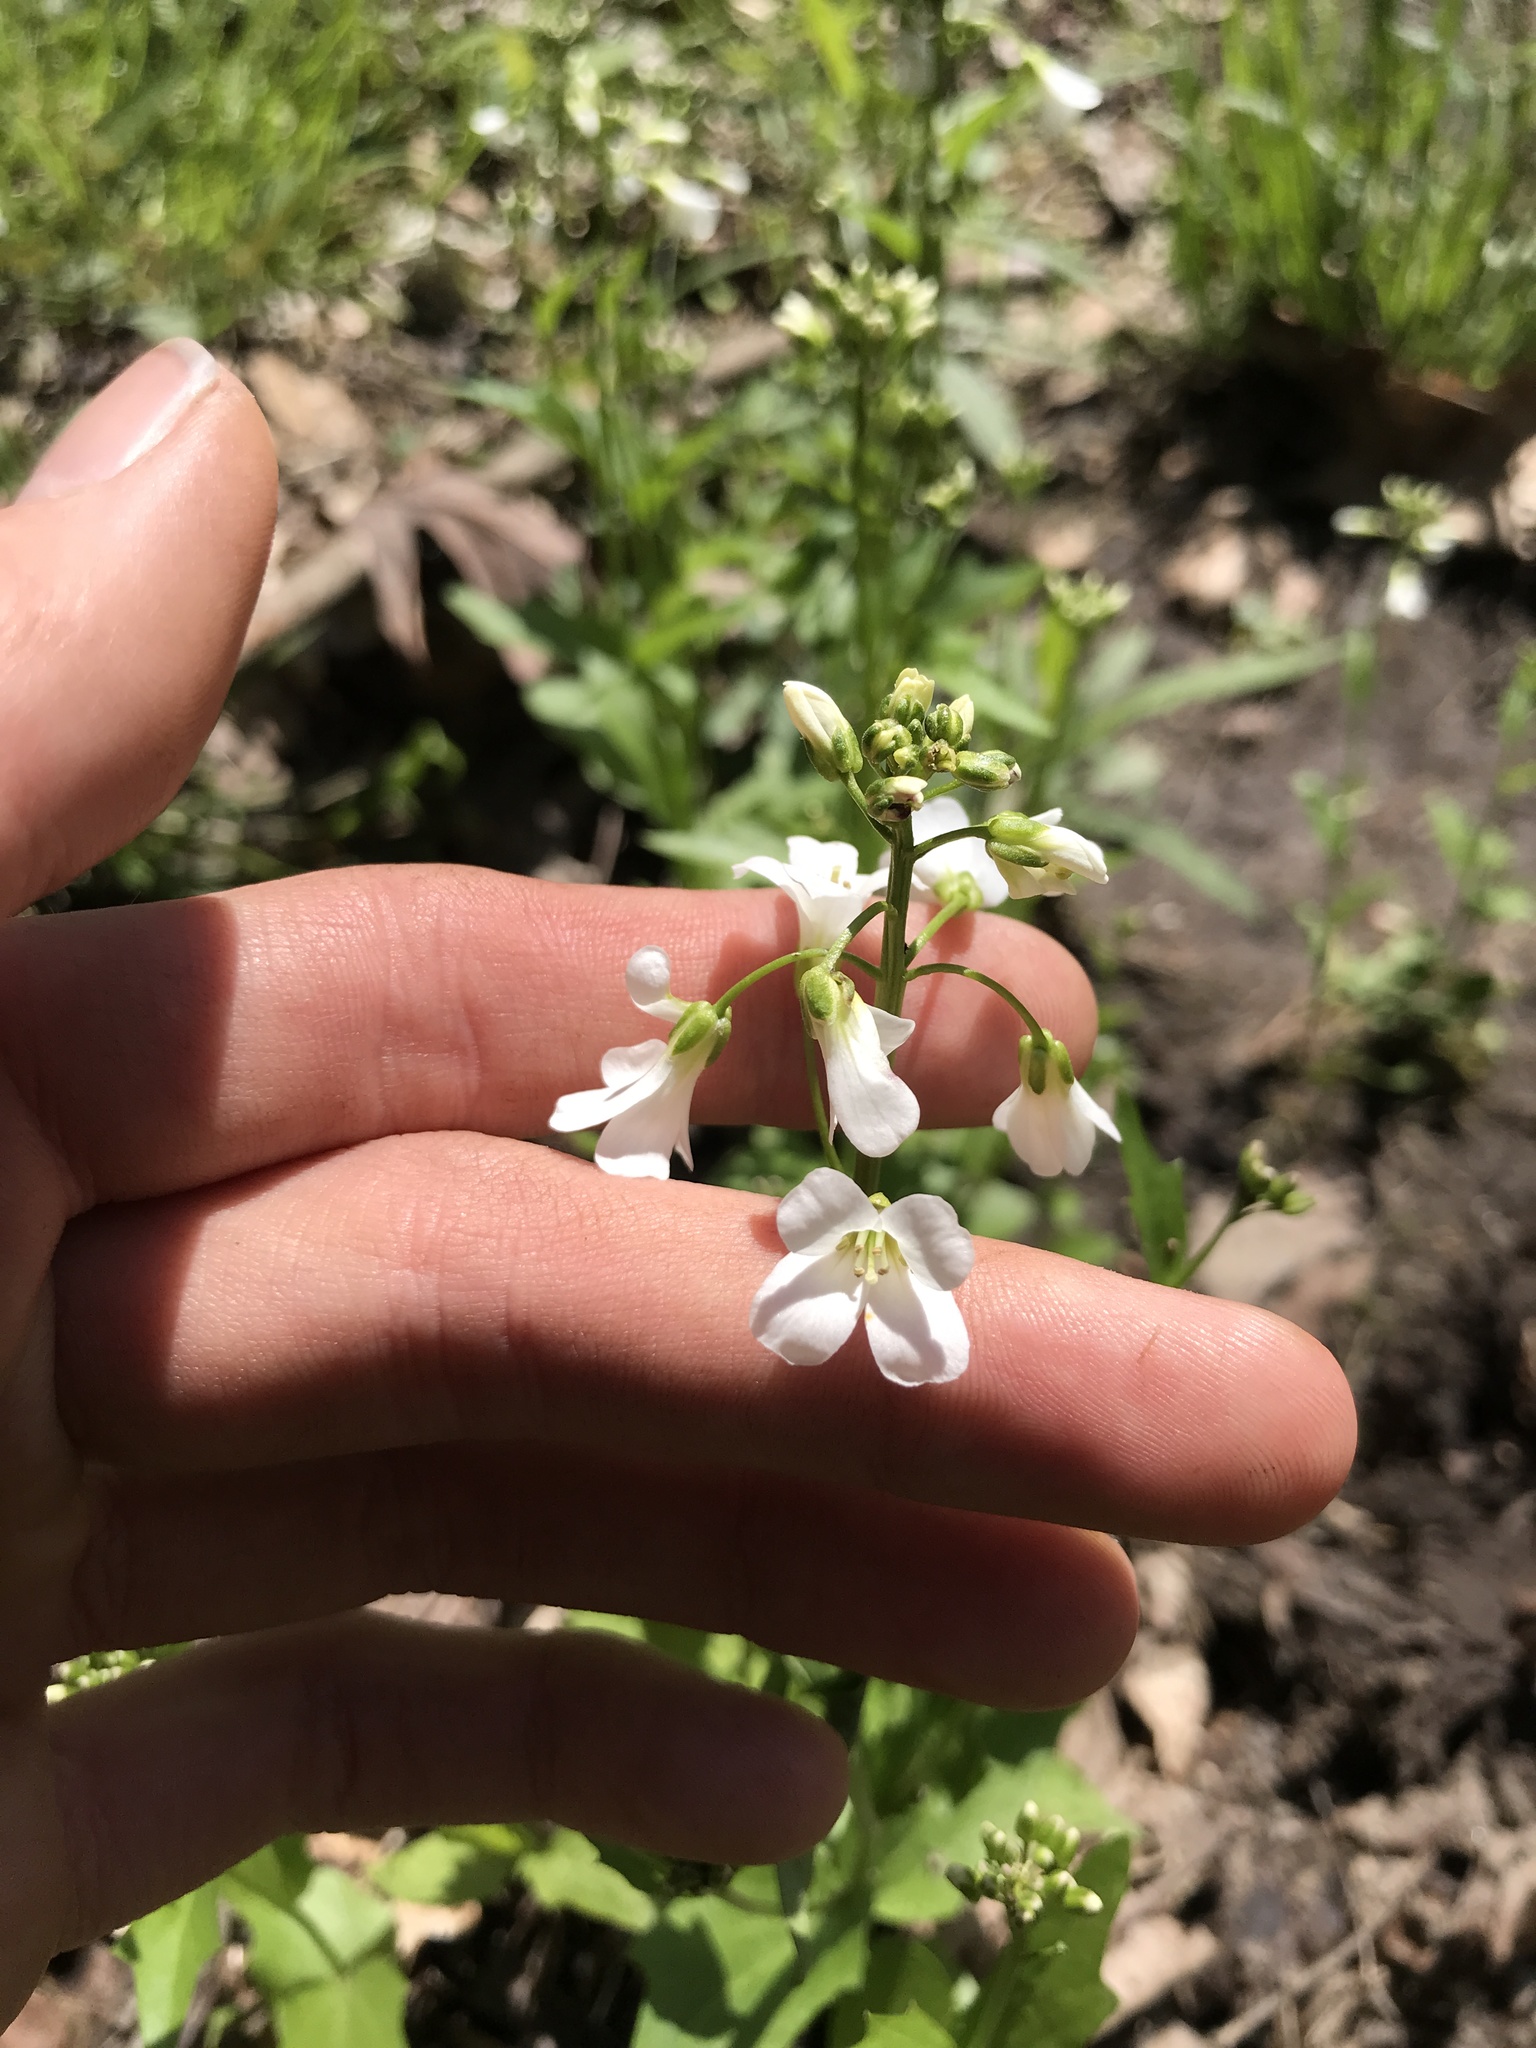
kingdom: Plantae
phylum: Tracheophyta
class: Magnoliopsida
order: Brassicales
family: Brassicaceae
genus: Cardamine
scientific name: Cardamine bulbosa
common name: Spring cress
